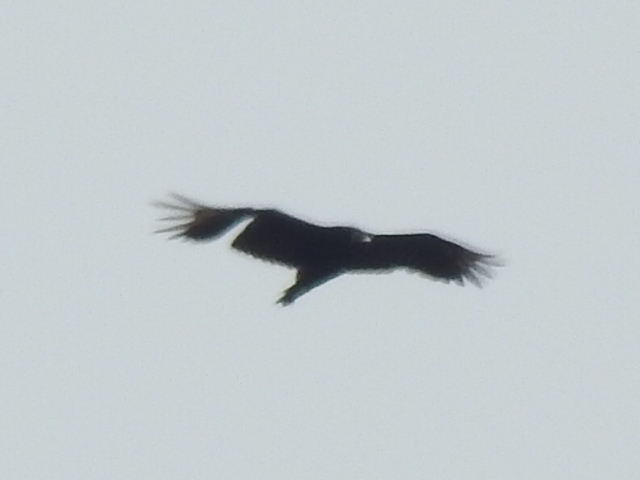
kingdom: Animalia
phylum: Chordata
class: Aves
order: Accipitriformes
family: Cathartidae
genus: Coragyps
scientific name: Coragyps atratus
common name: Black vulture
